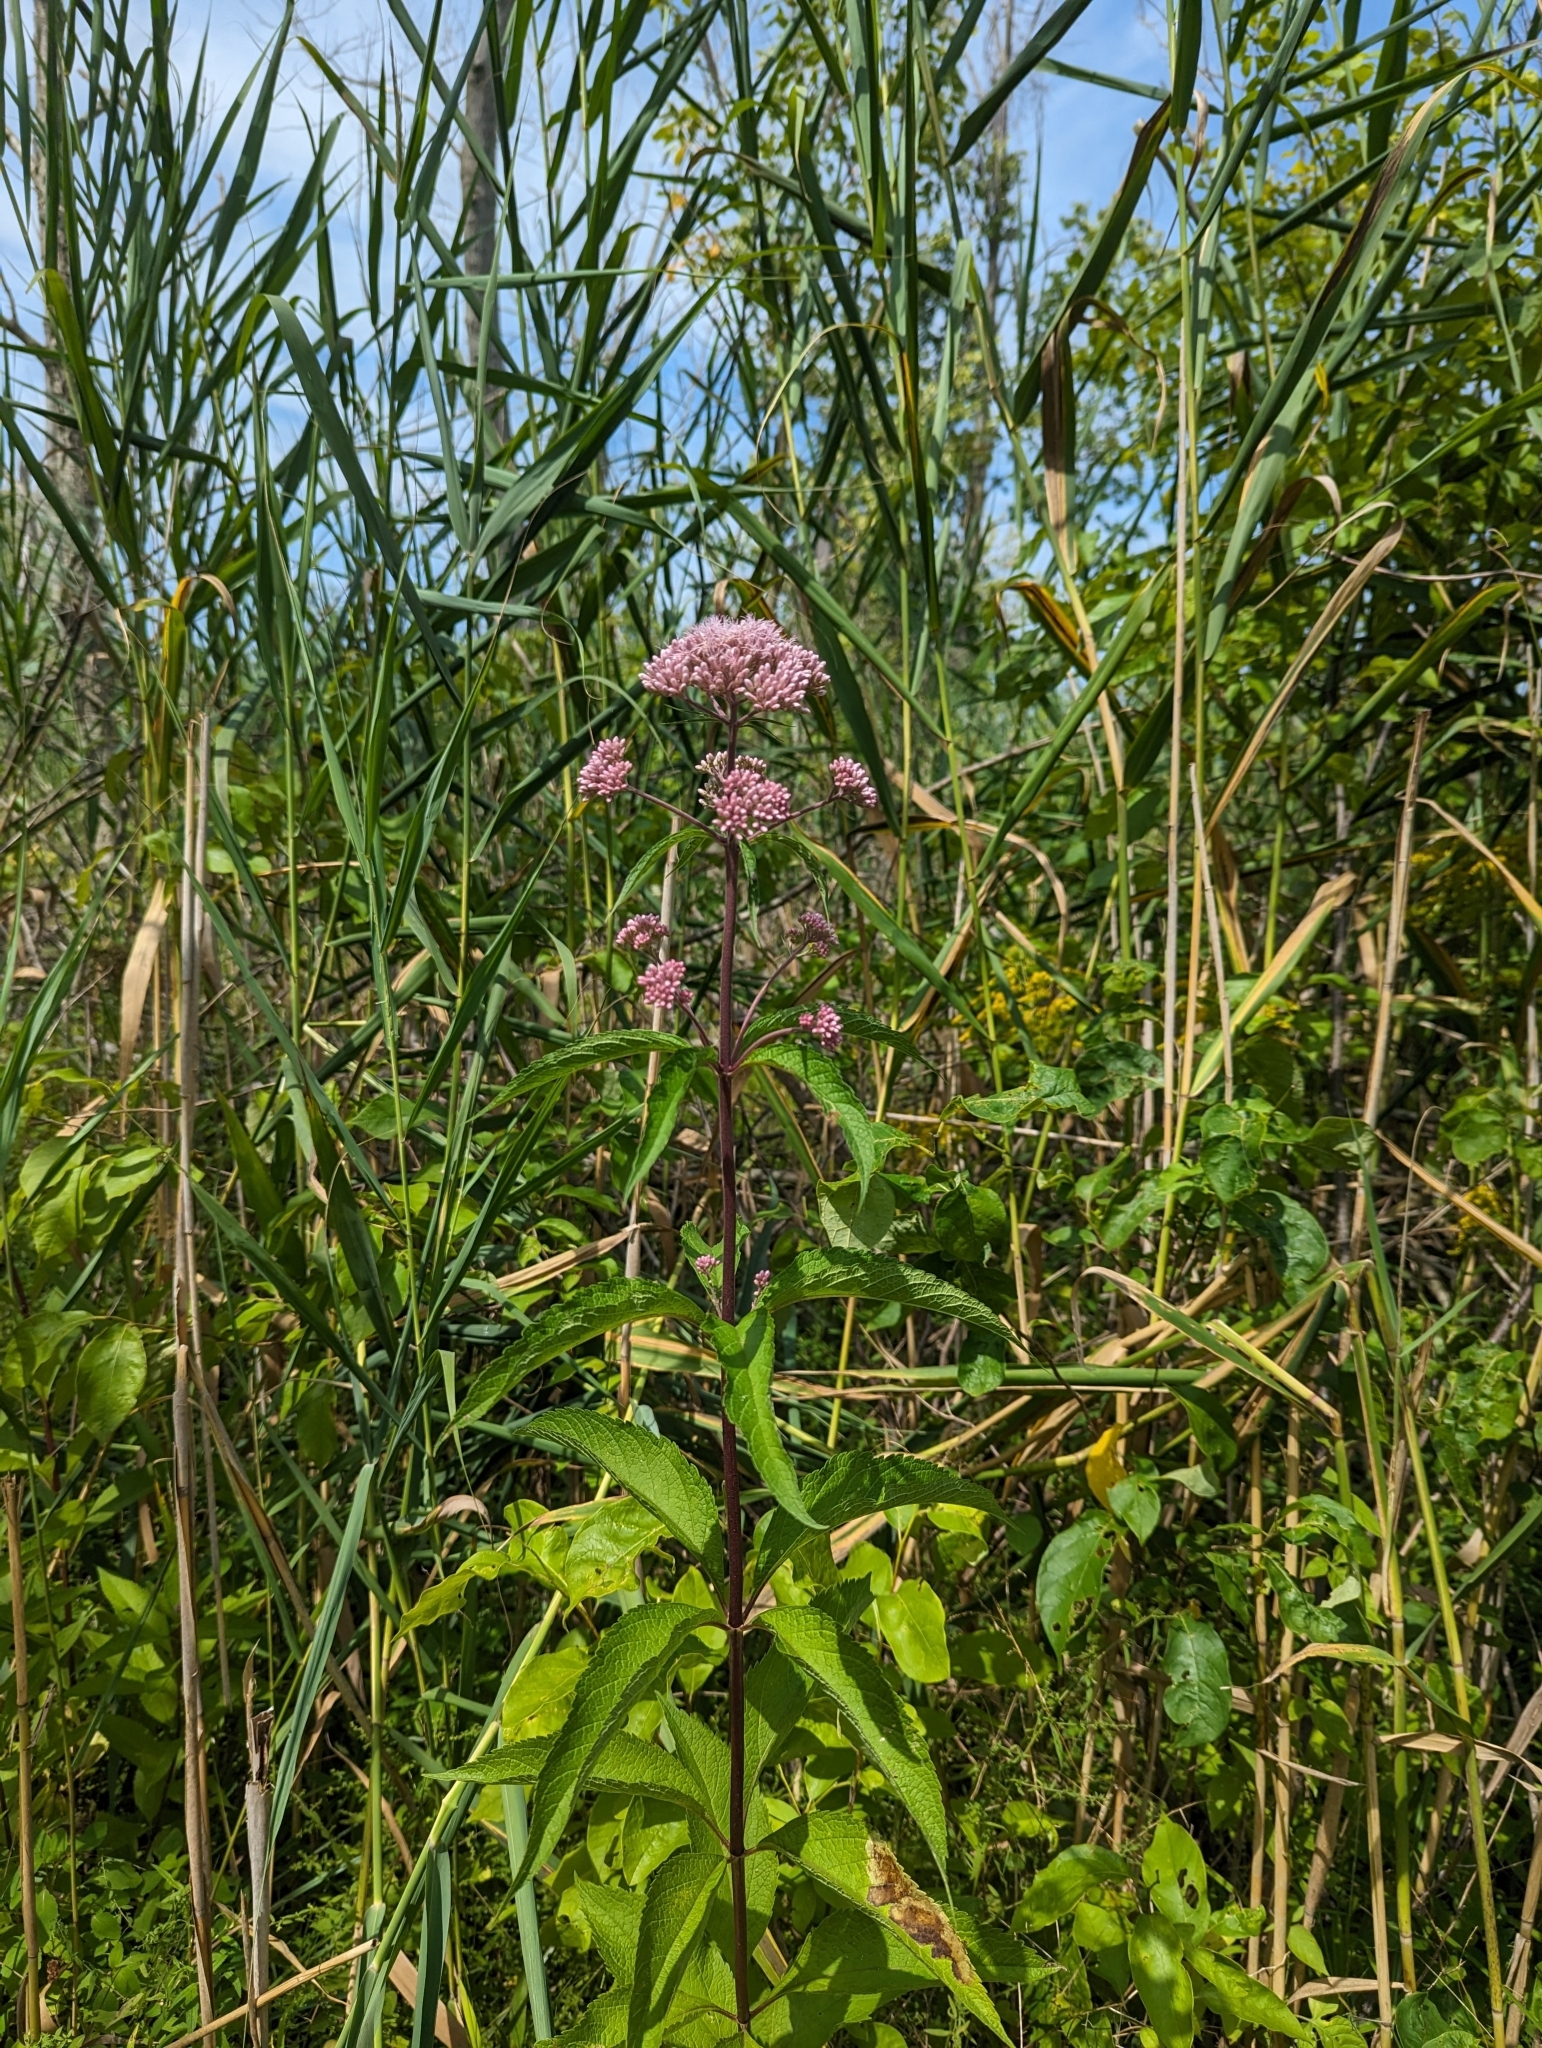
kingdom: Plantae
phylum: Tracheophyta
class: Magnoliopsida
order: Asterales
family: Asteraceae
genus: Eutrochium
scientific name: Eutrochium maculatum
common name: Spotted joe pye weed
